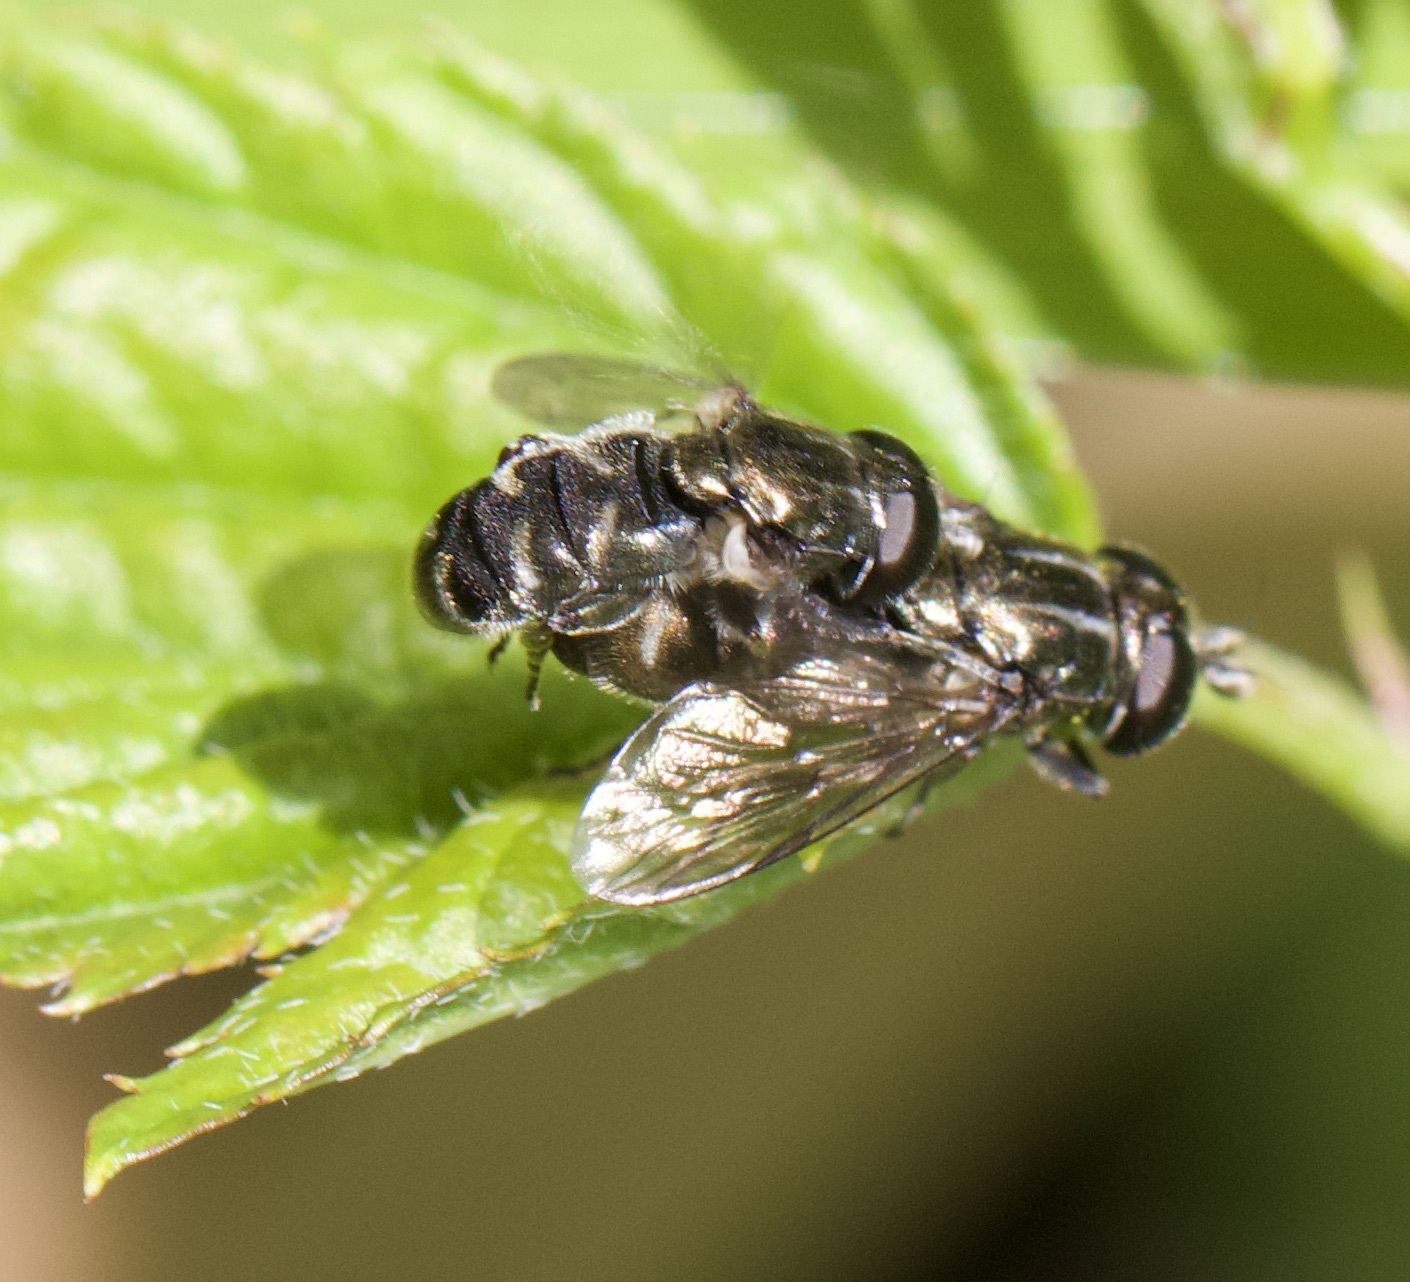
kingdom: Animalia
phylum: Arthropoda
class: Insecta
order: Diptera
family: Syrphidae
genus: Eumerus
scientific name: Eumerus
